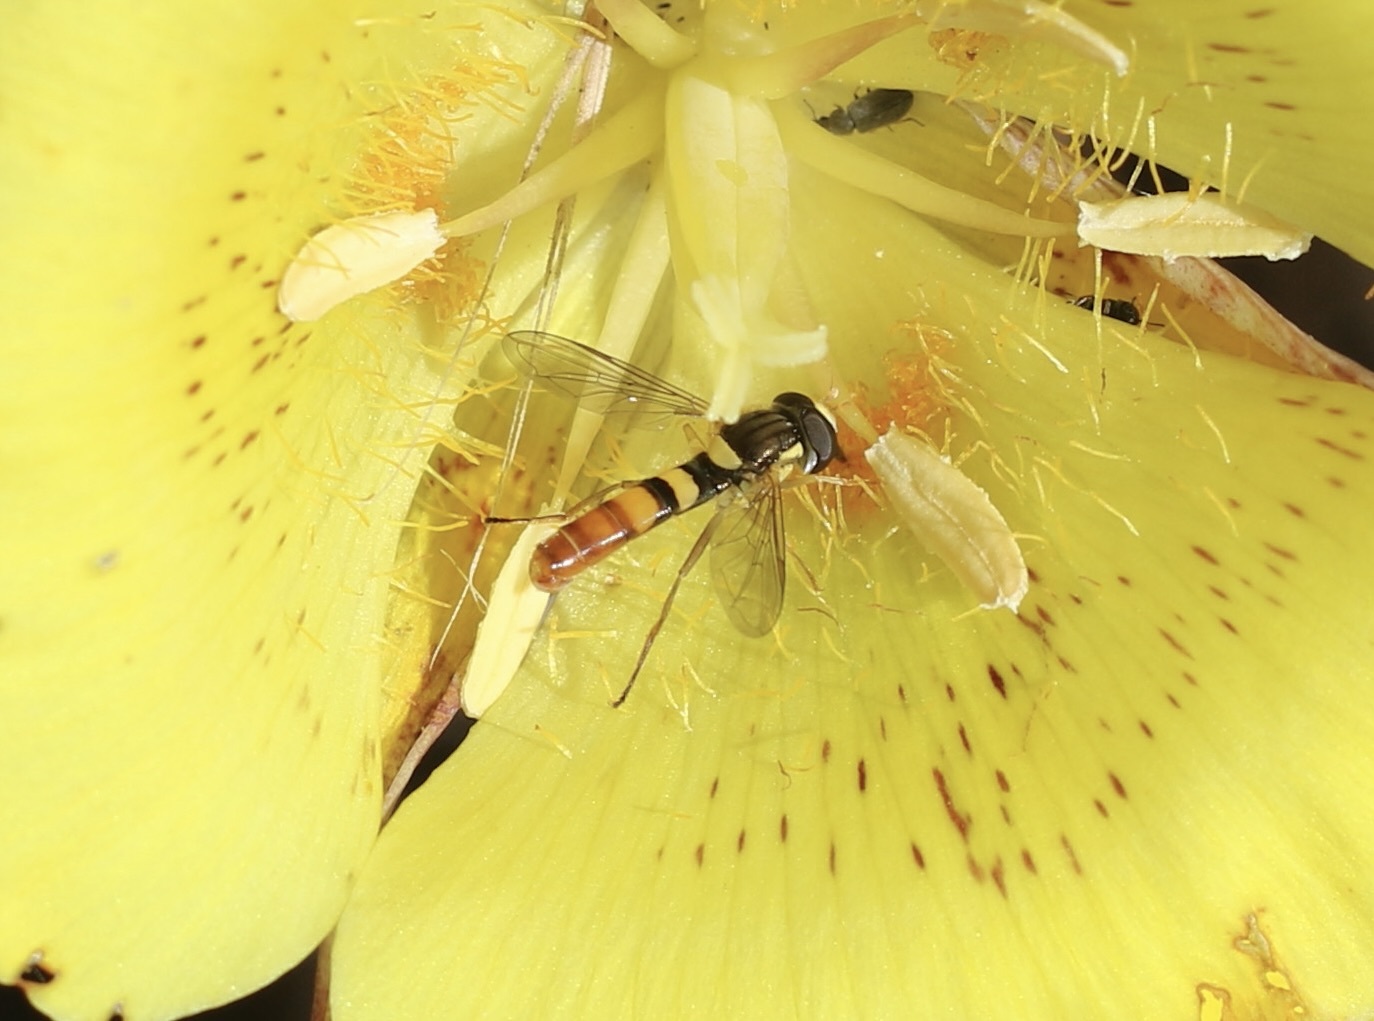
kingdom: Animalia
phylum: Arthropoda
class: Insecta
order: Diptera
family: Syrphidae
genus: Sphaerophoria
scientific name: Sphaerophoria contigua
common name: Tufted globetail
